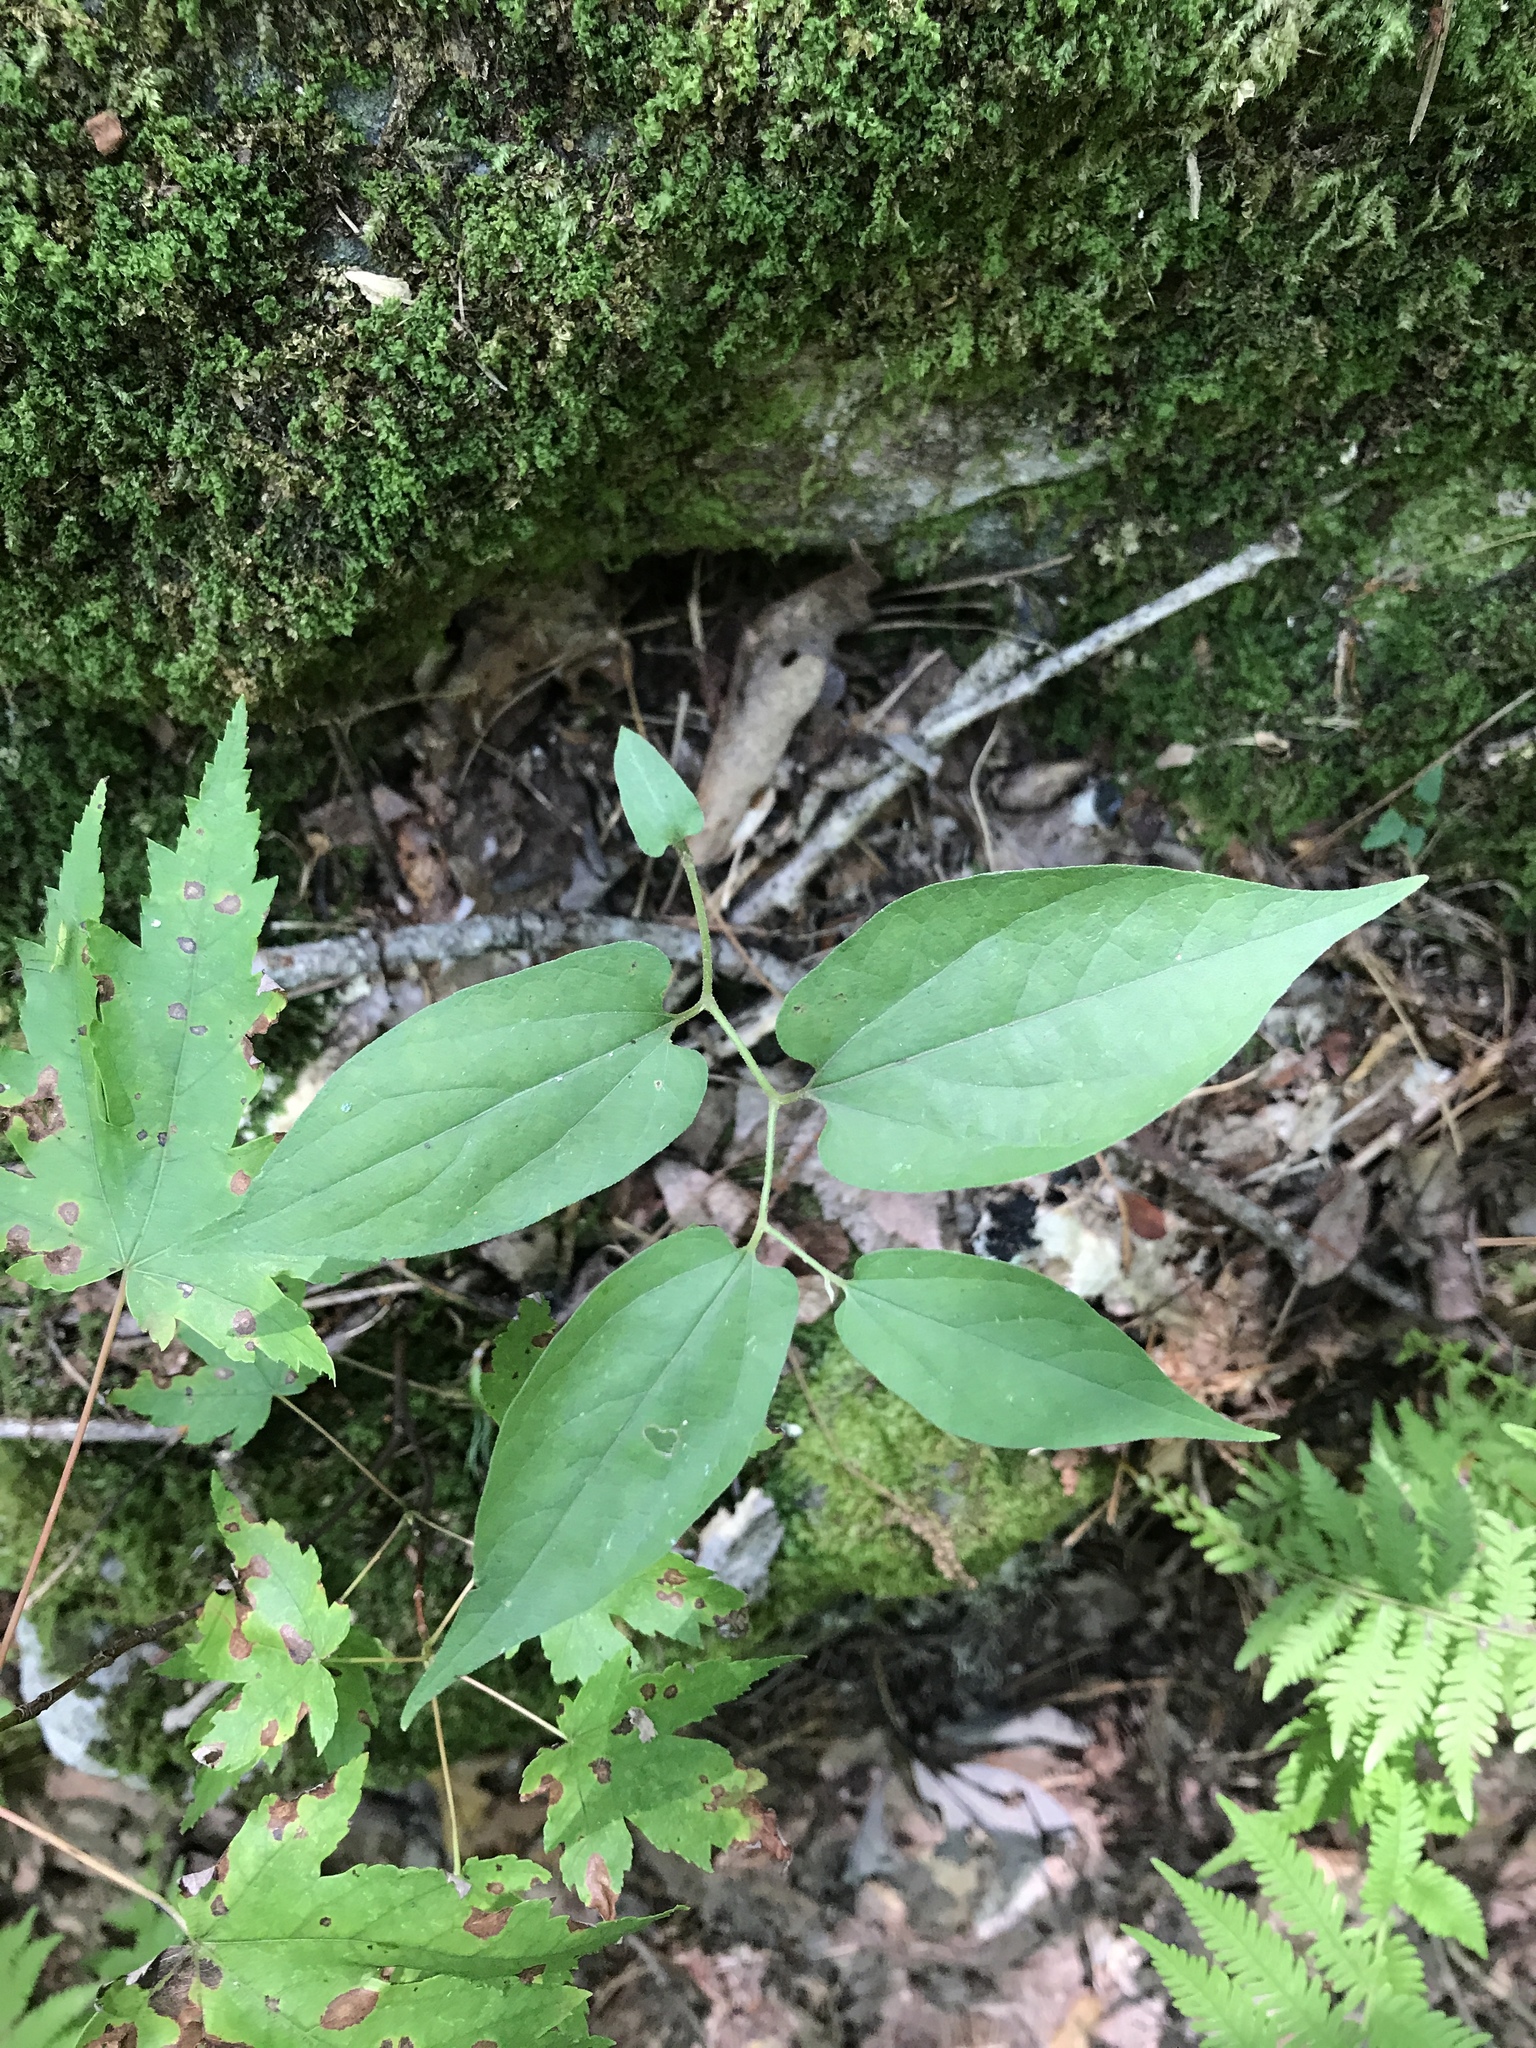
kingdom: Plantae
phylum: Tracheophyta
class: Magnoliopsida
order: Piperales
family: Aristolochiaceae
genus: Endodeca
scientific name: Endodeca serpentaria
